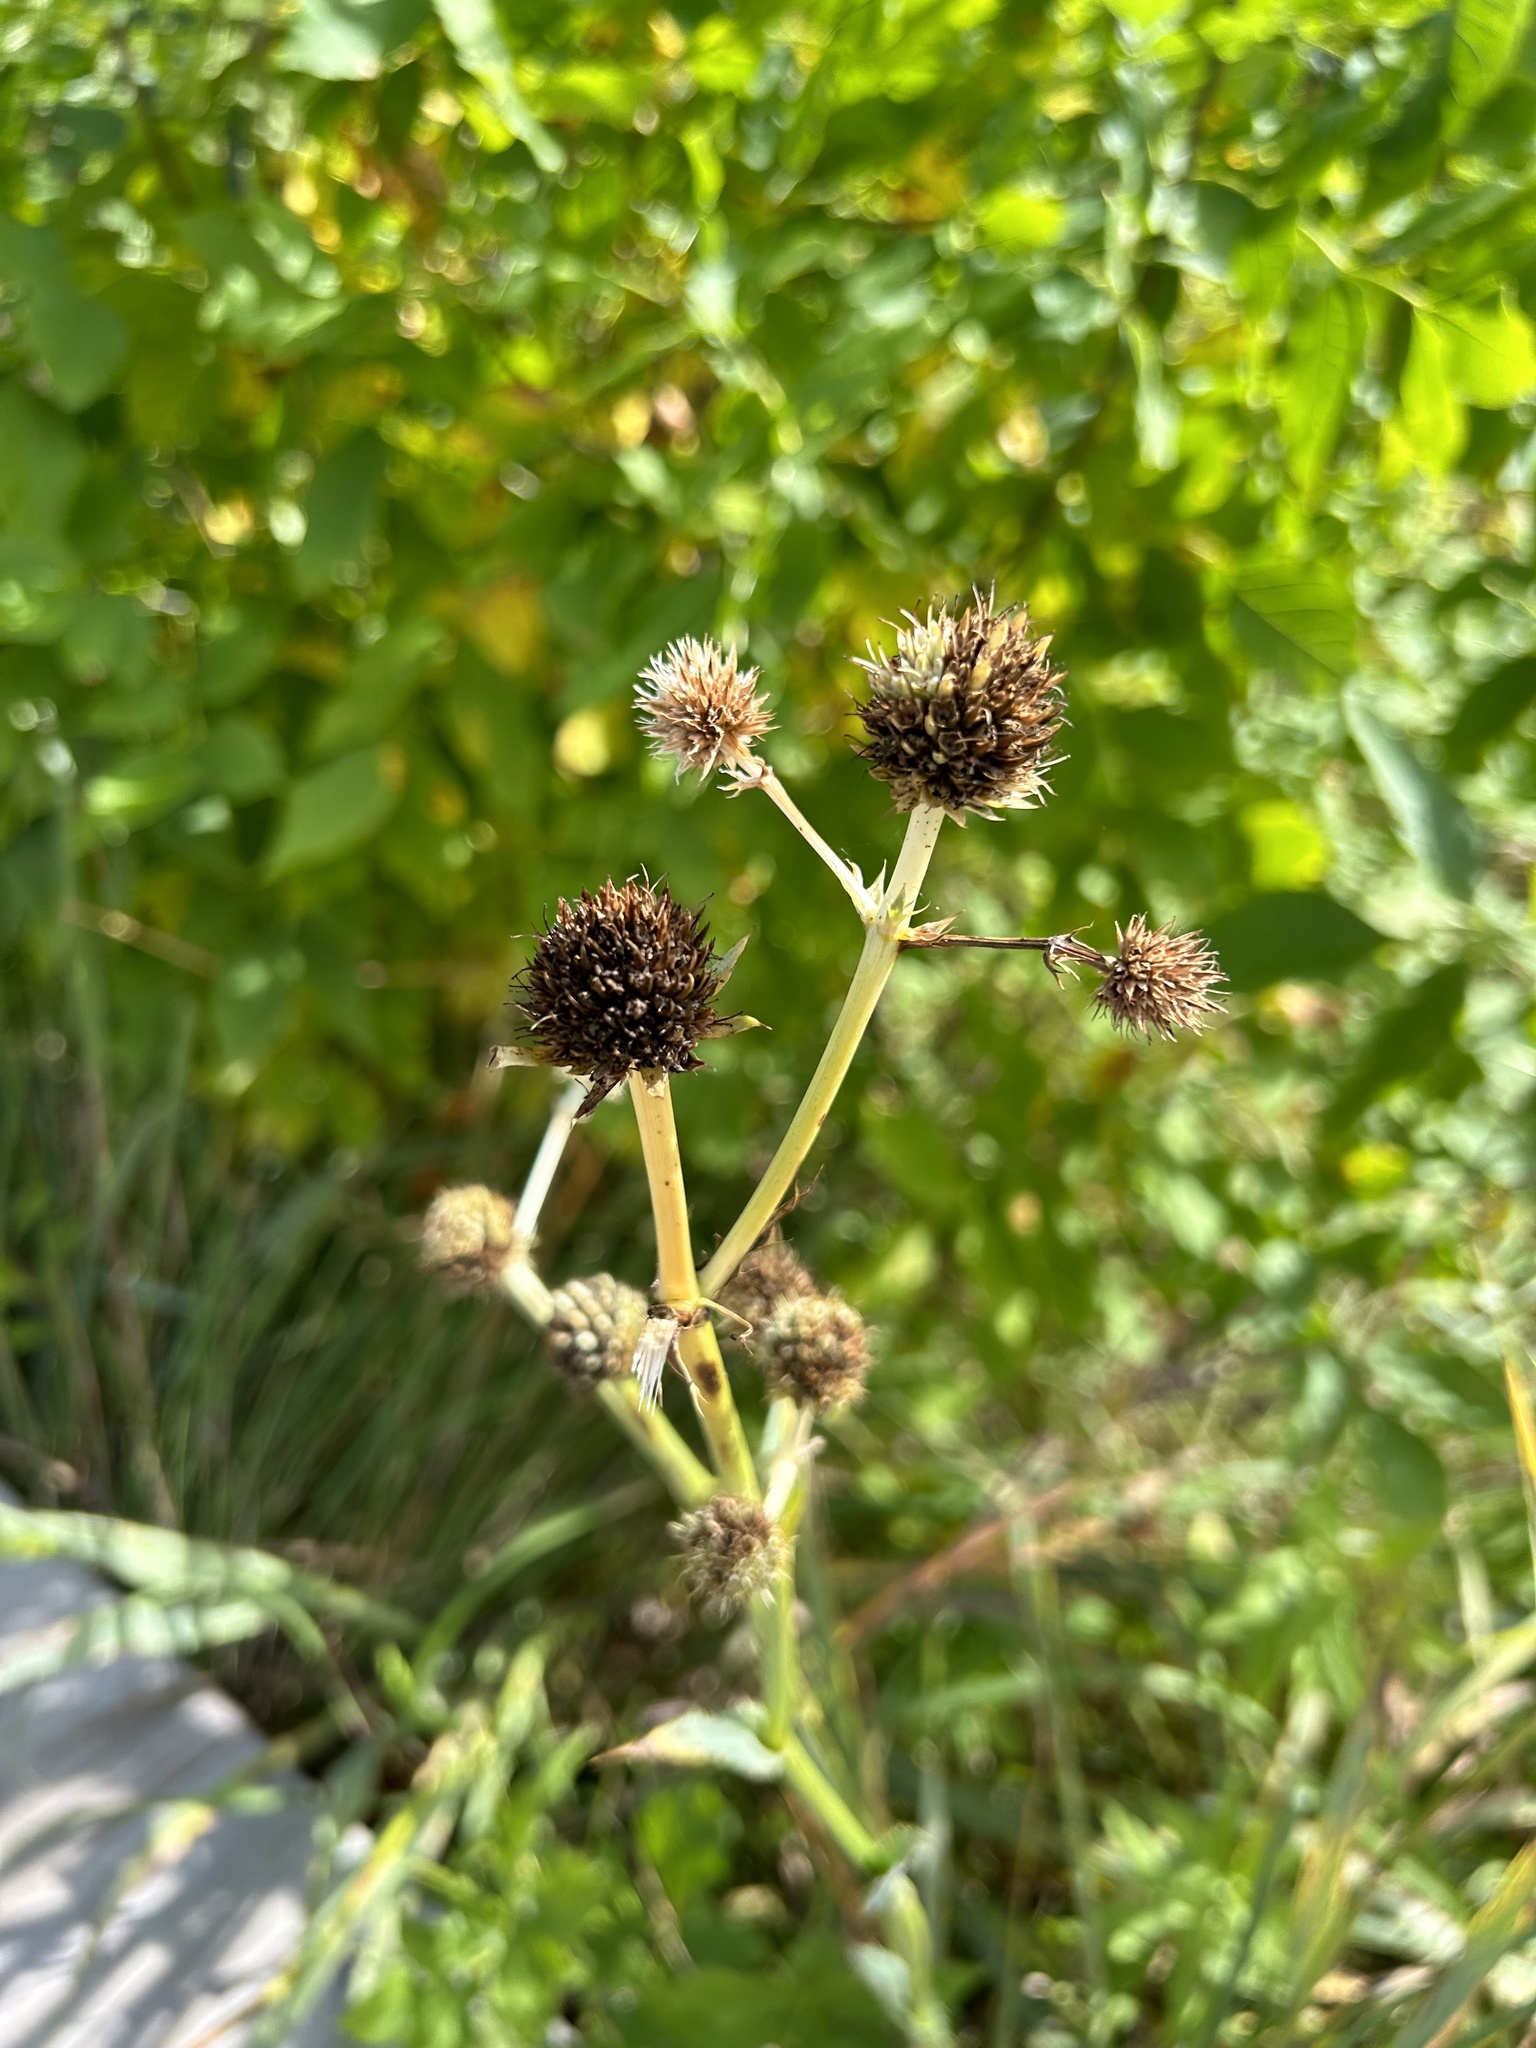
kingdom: Plantae
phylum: Tracheophyta
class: Magnoliopsida
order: Apiales
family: Apiaceae
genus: Eryngium
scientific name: Eryngium yuccifolium
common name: Button eryngo
